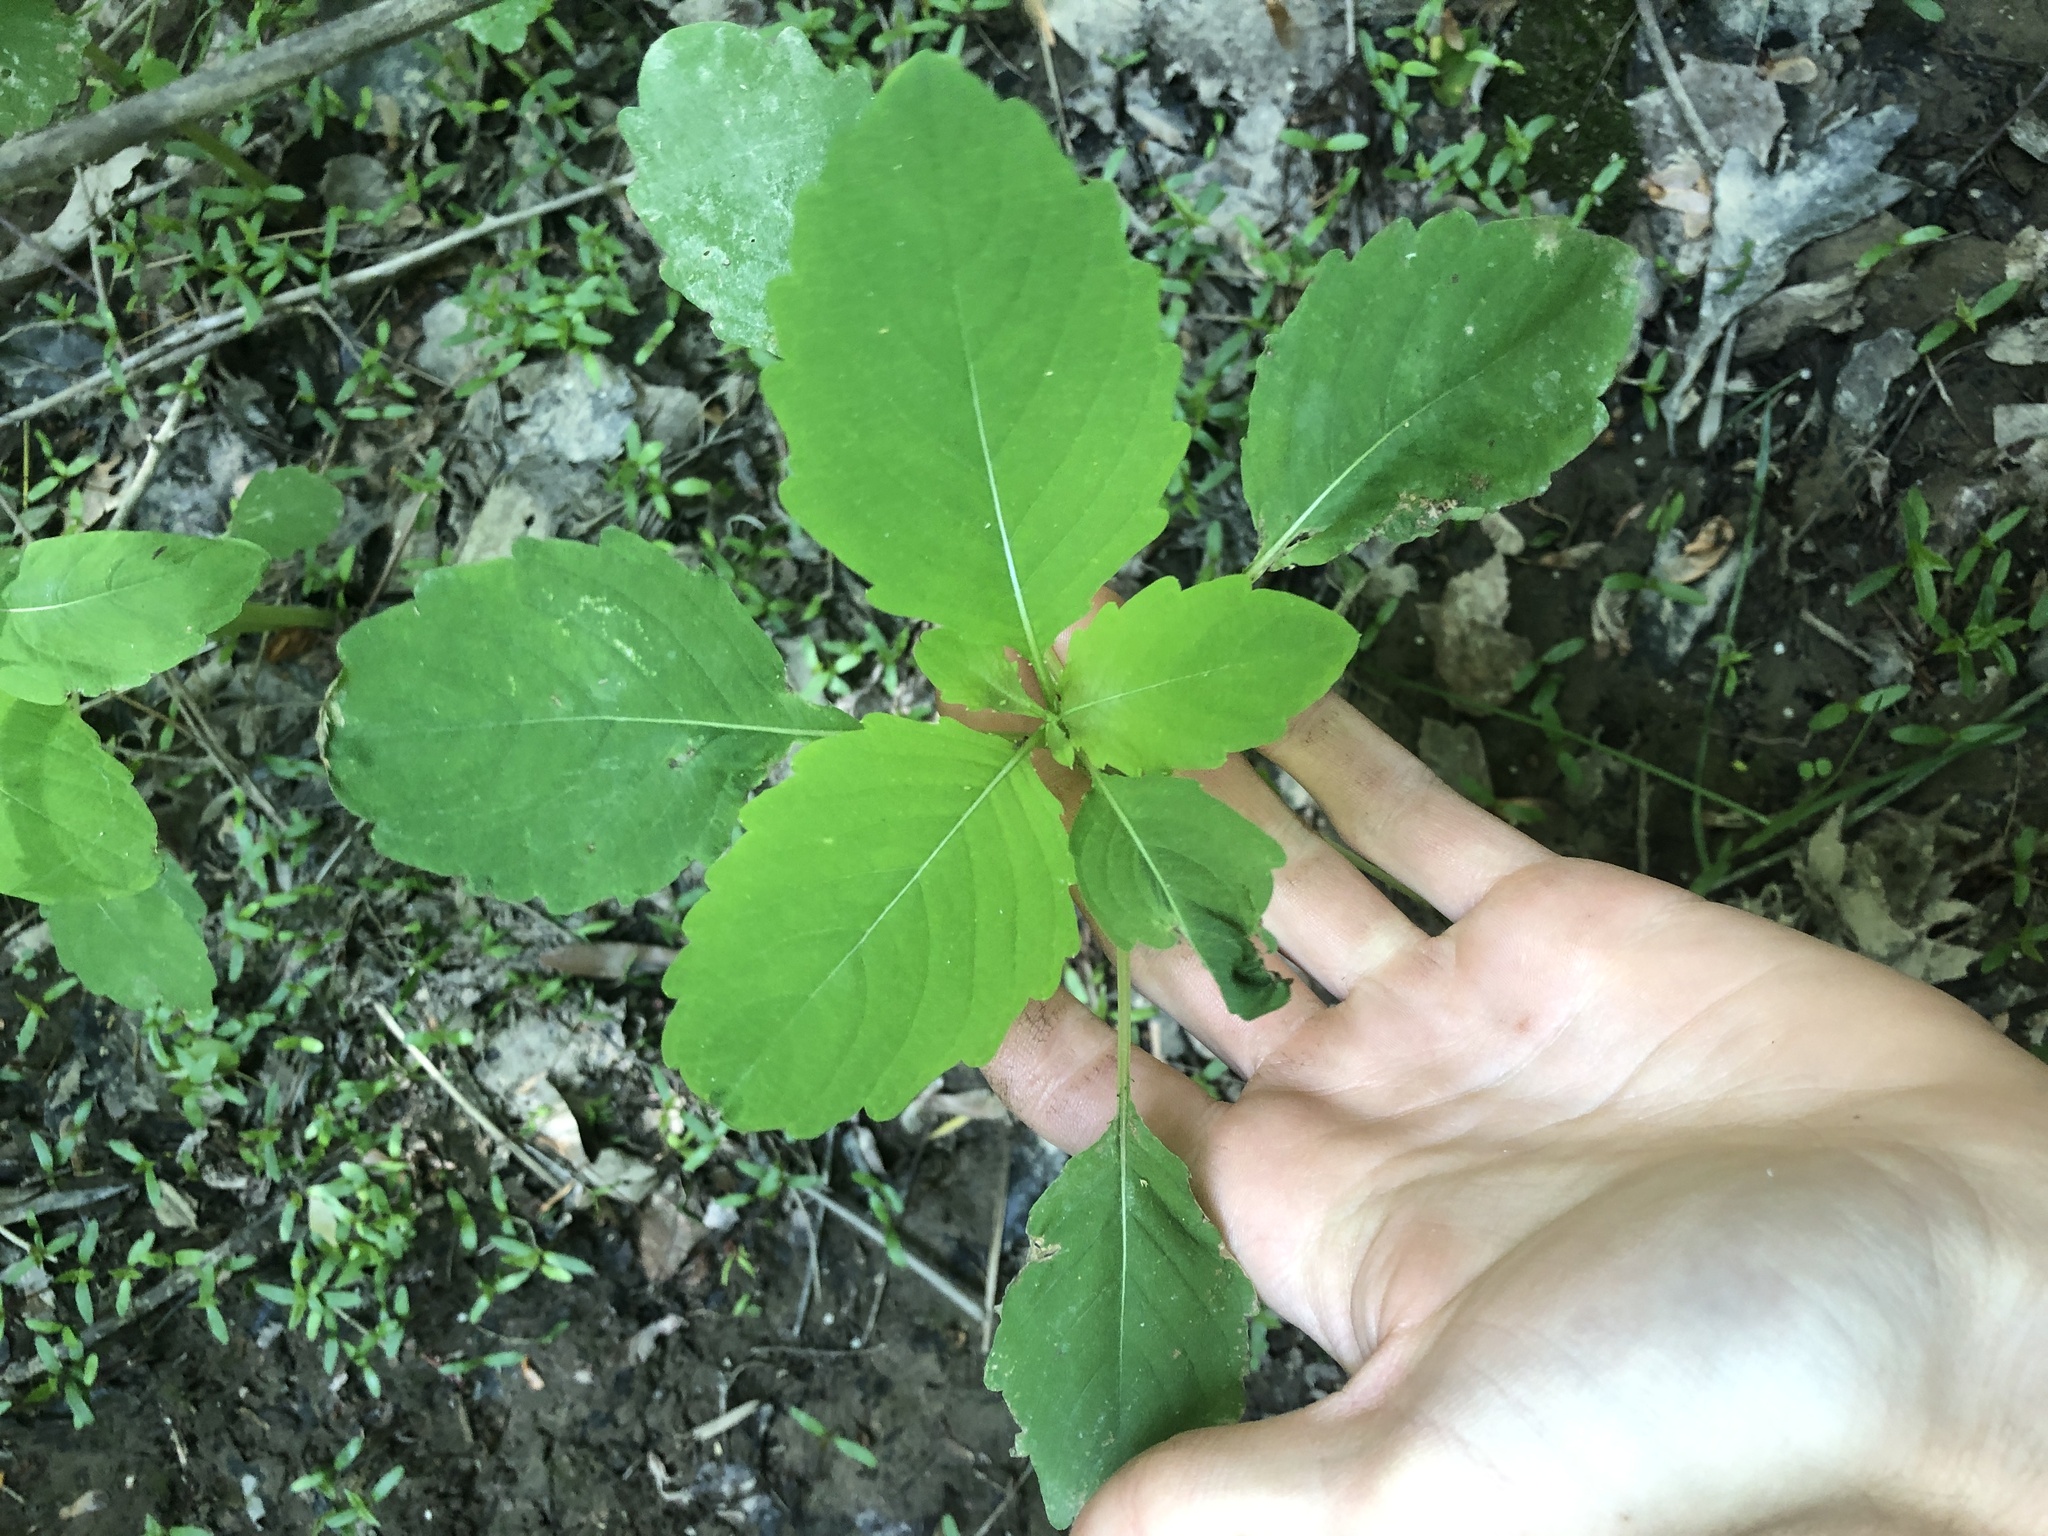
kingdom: Plantae
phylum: Tracheophyta
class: Magnoliopsida
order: Ericales
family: Balsaminaceae
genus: Impatiens
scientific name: Impatiens
